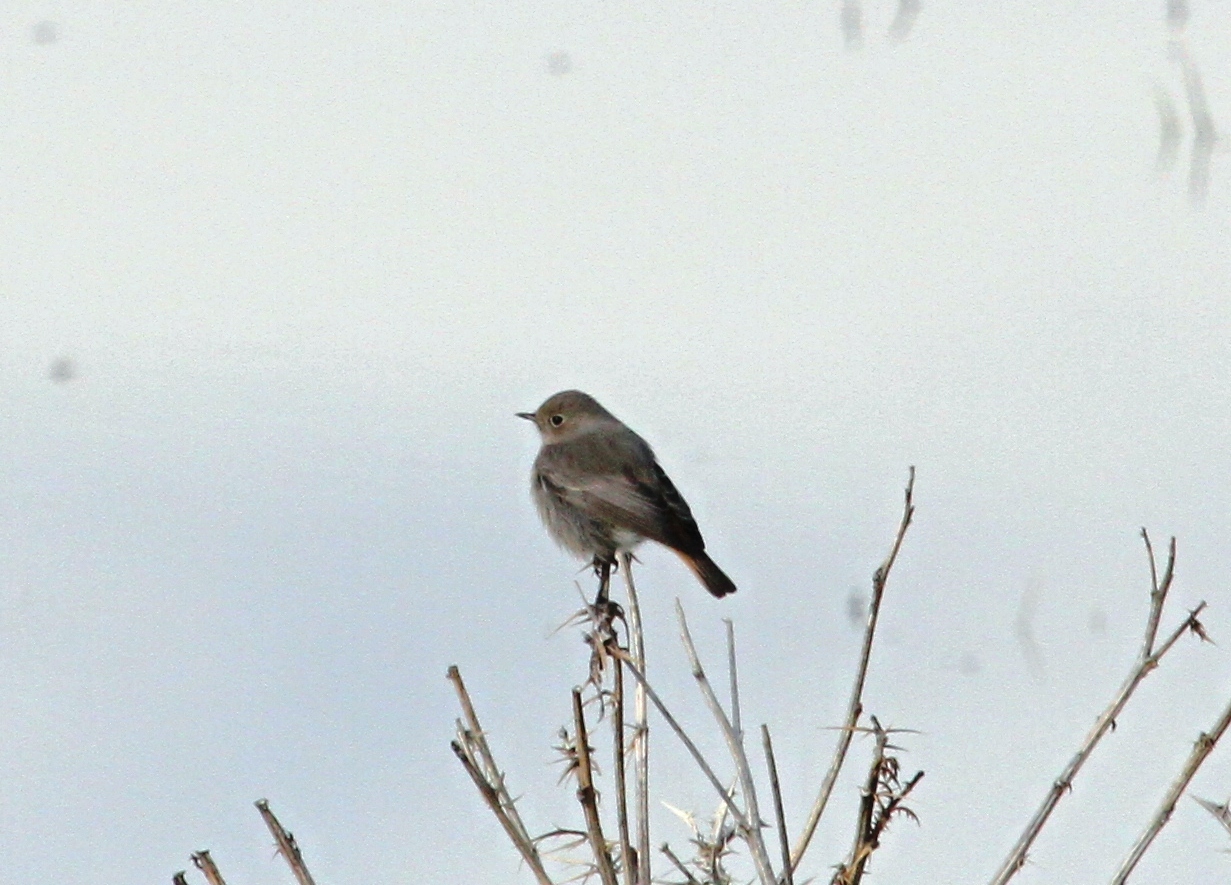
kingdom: Animalia
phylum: Chordata
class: Aves
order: Passeriformes
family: Muscicapidae
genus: Phoenicurus
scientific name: Phoenicurus ochruros
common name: Black redstart
